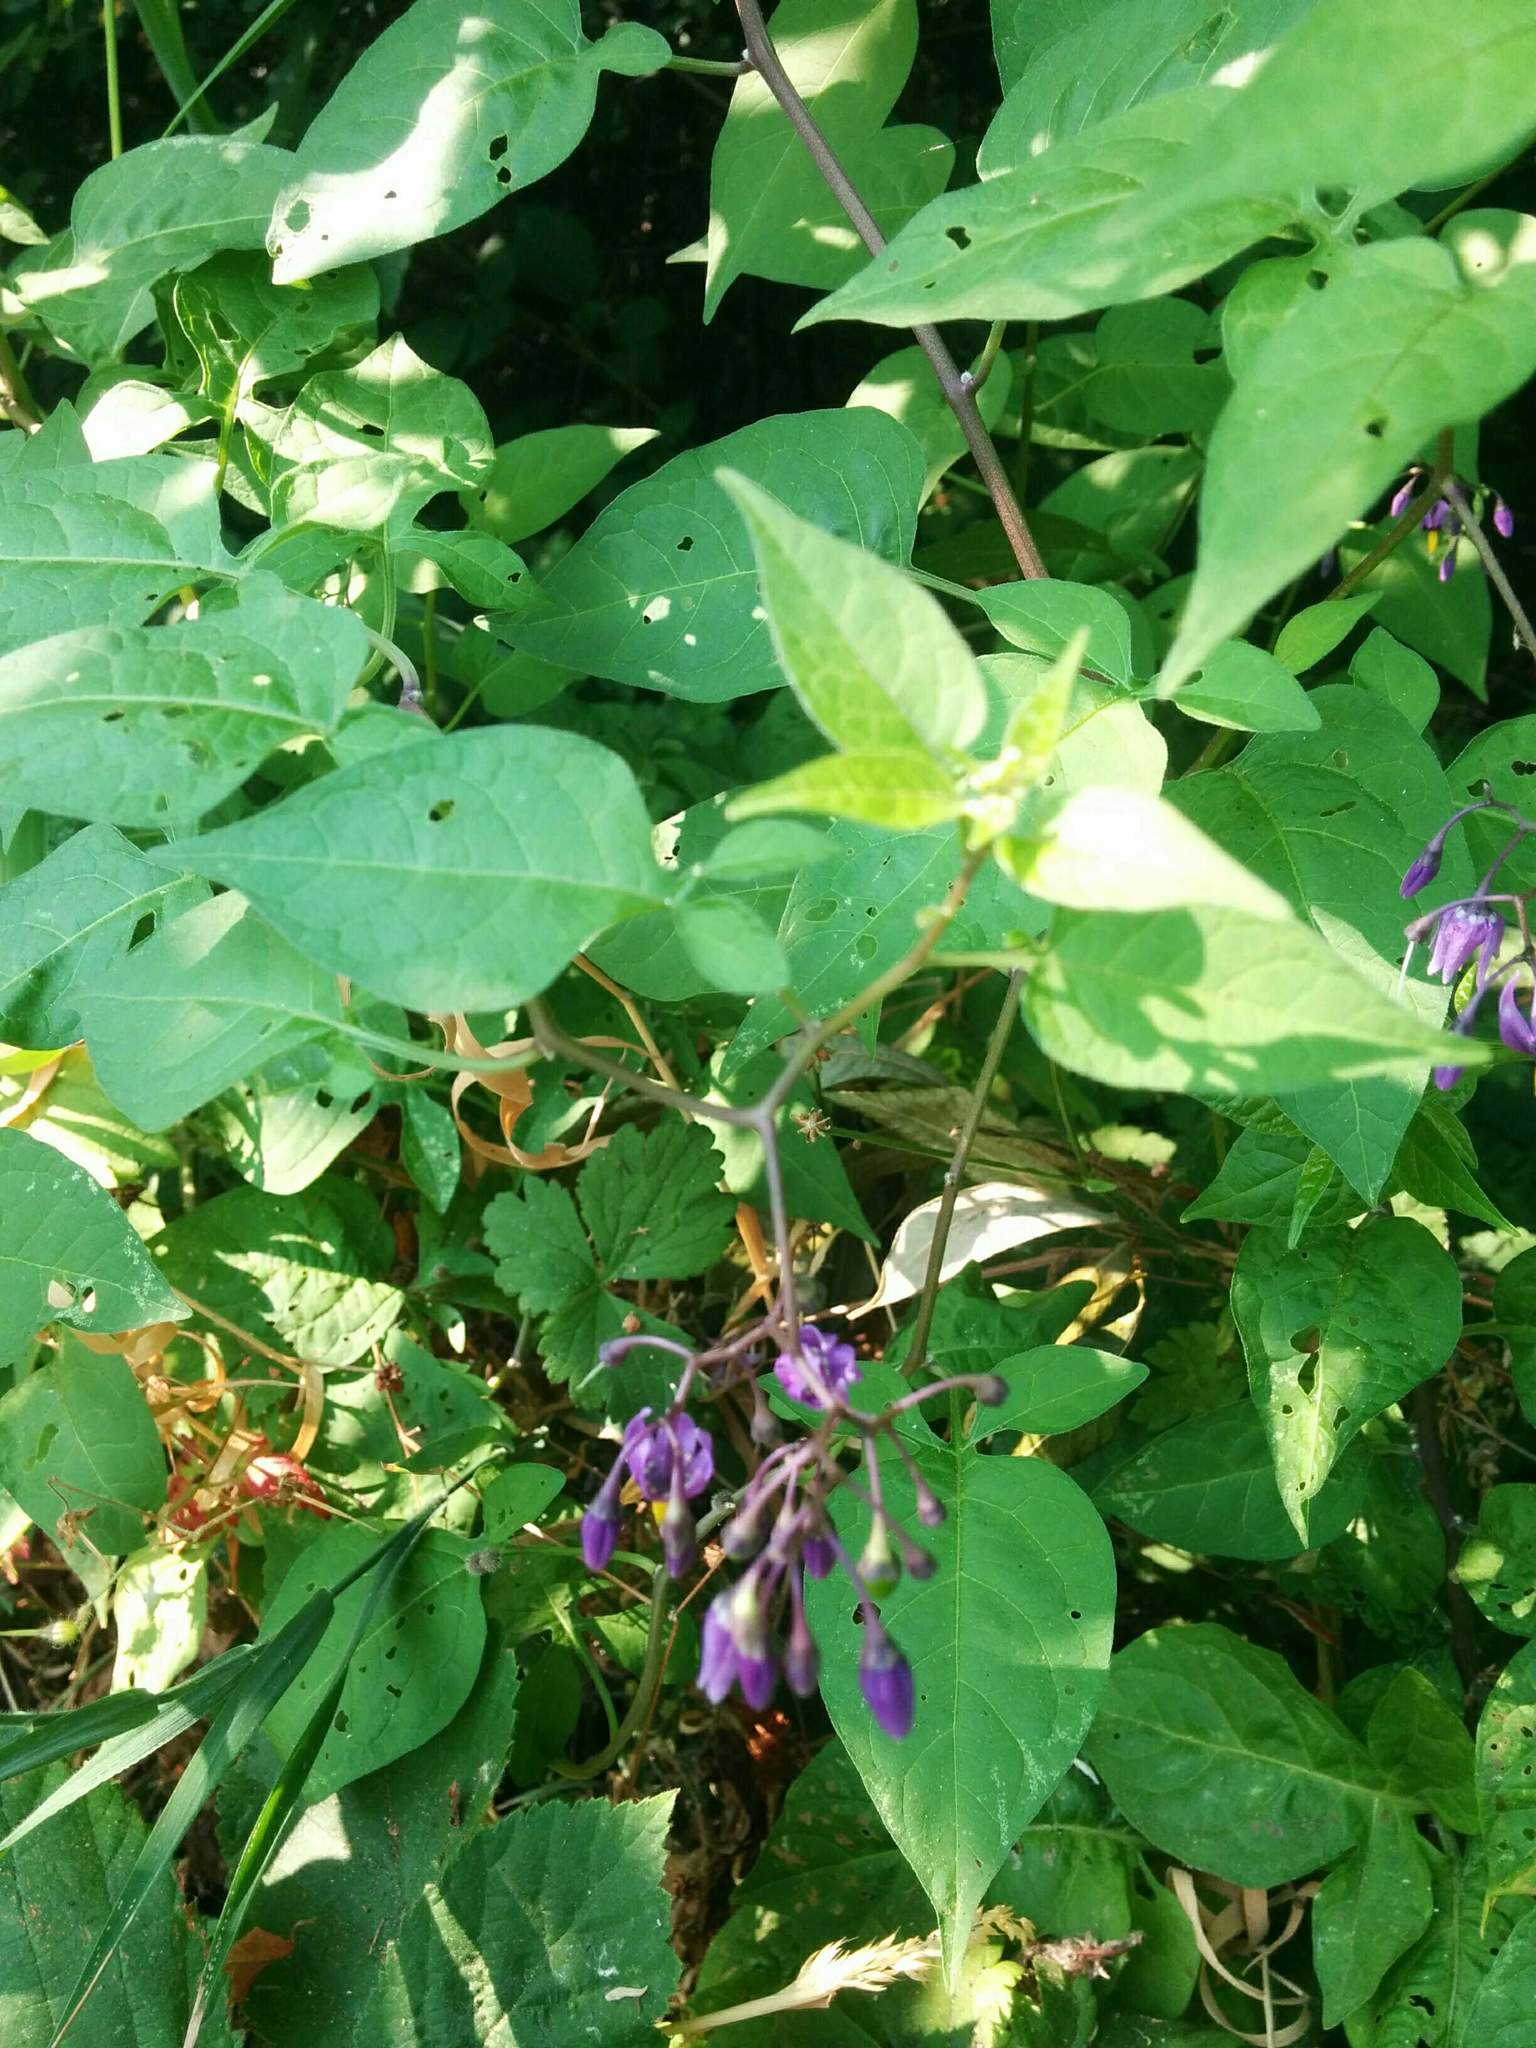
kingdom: Plantae
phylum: Tracheophyta
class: Magnoliopsida
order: Solanales
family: Solanaceae
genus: Solanum
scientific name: Solanum dulcamara
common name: Climbing nightshade
